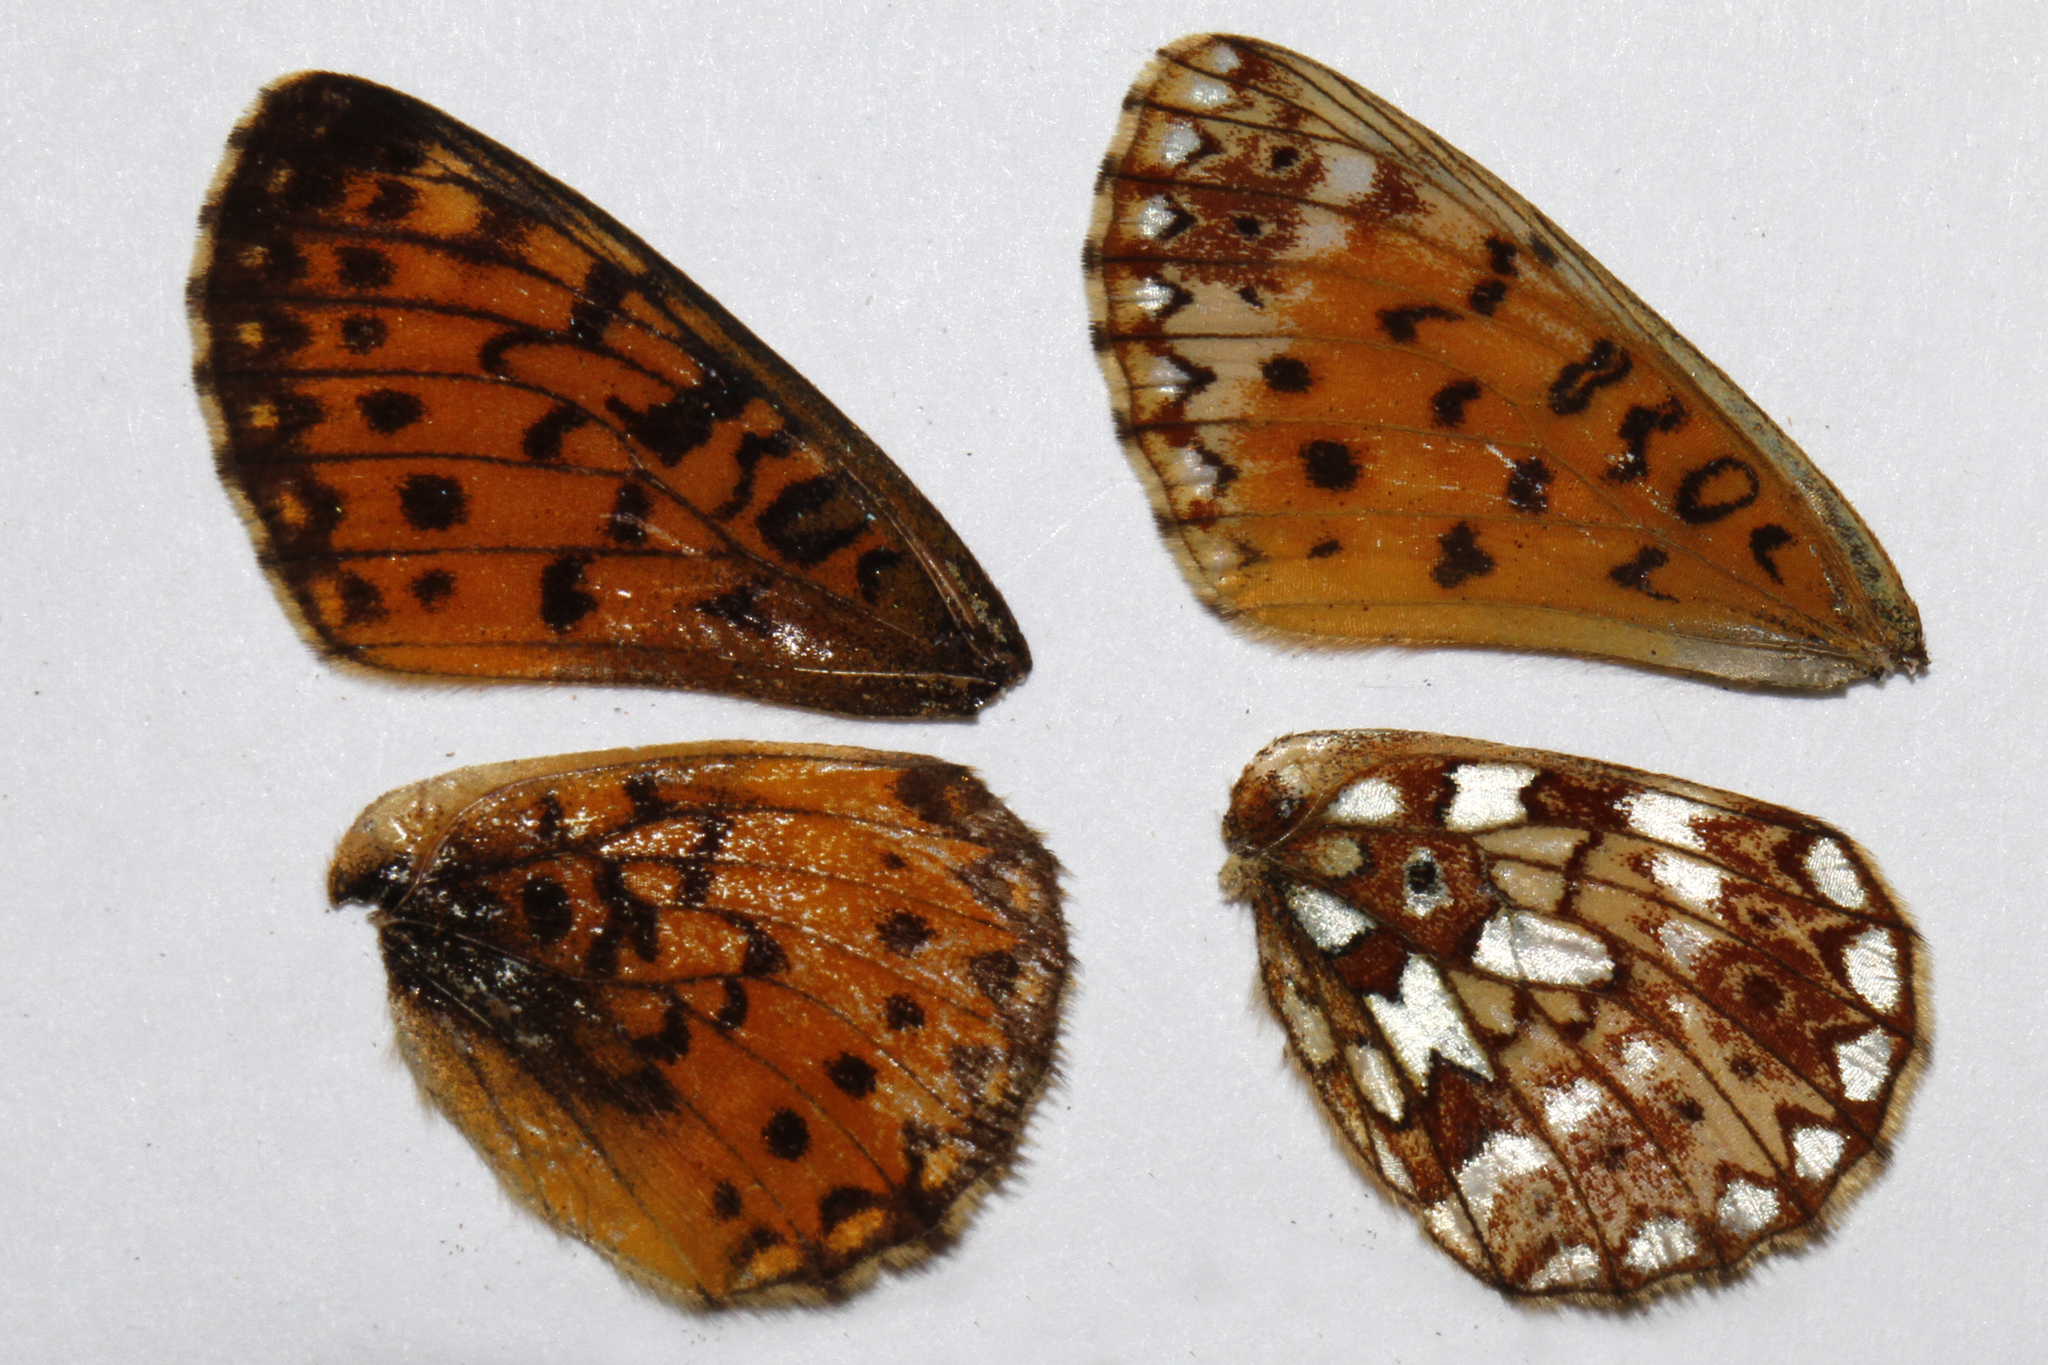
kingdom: Animalia
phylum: Arthropoda
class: Insecta
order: Lepidoptera
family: Nymphalidae
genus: Boloria
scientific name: Boloria
